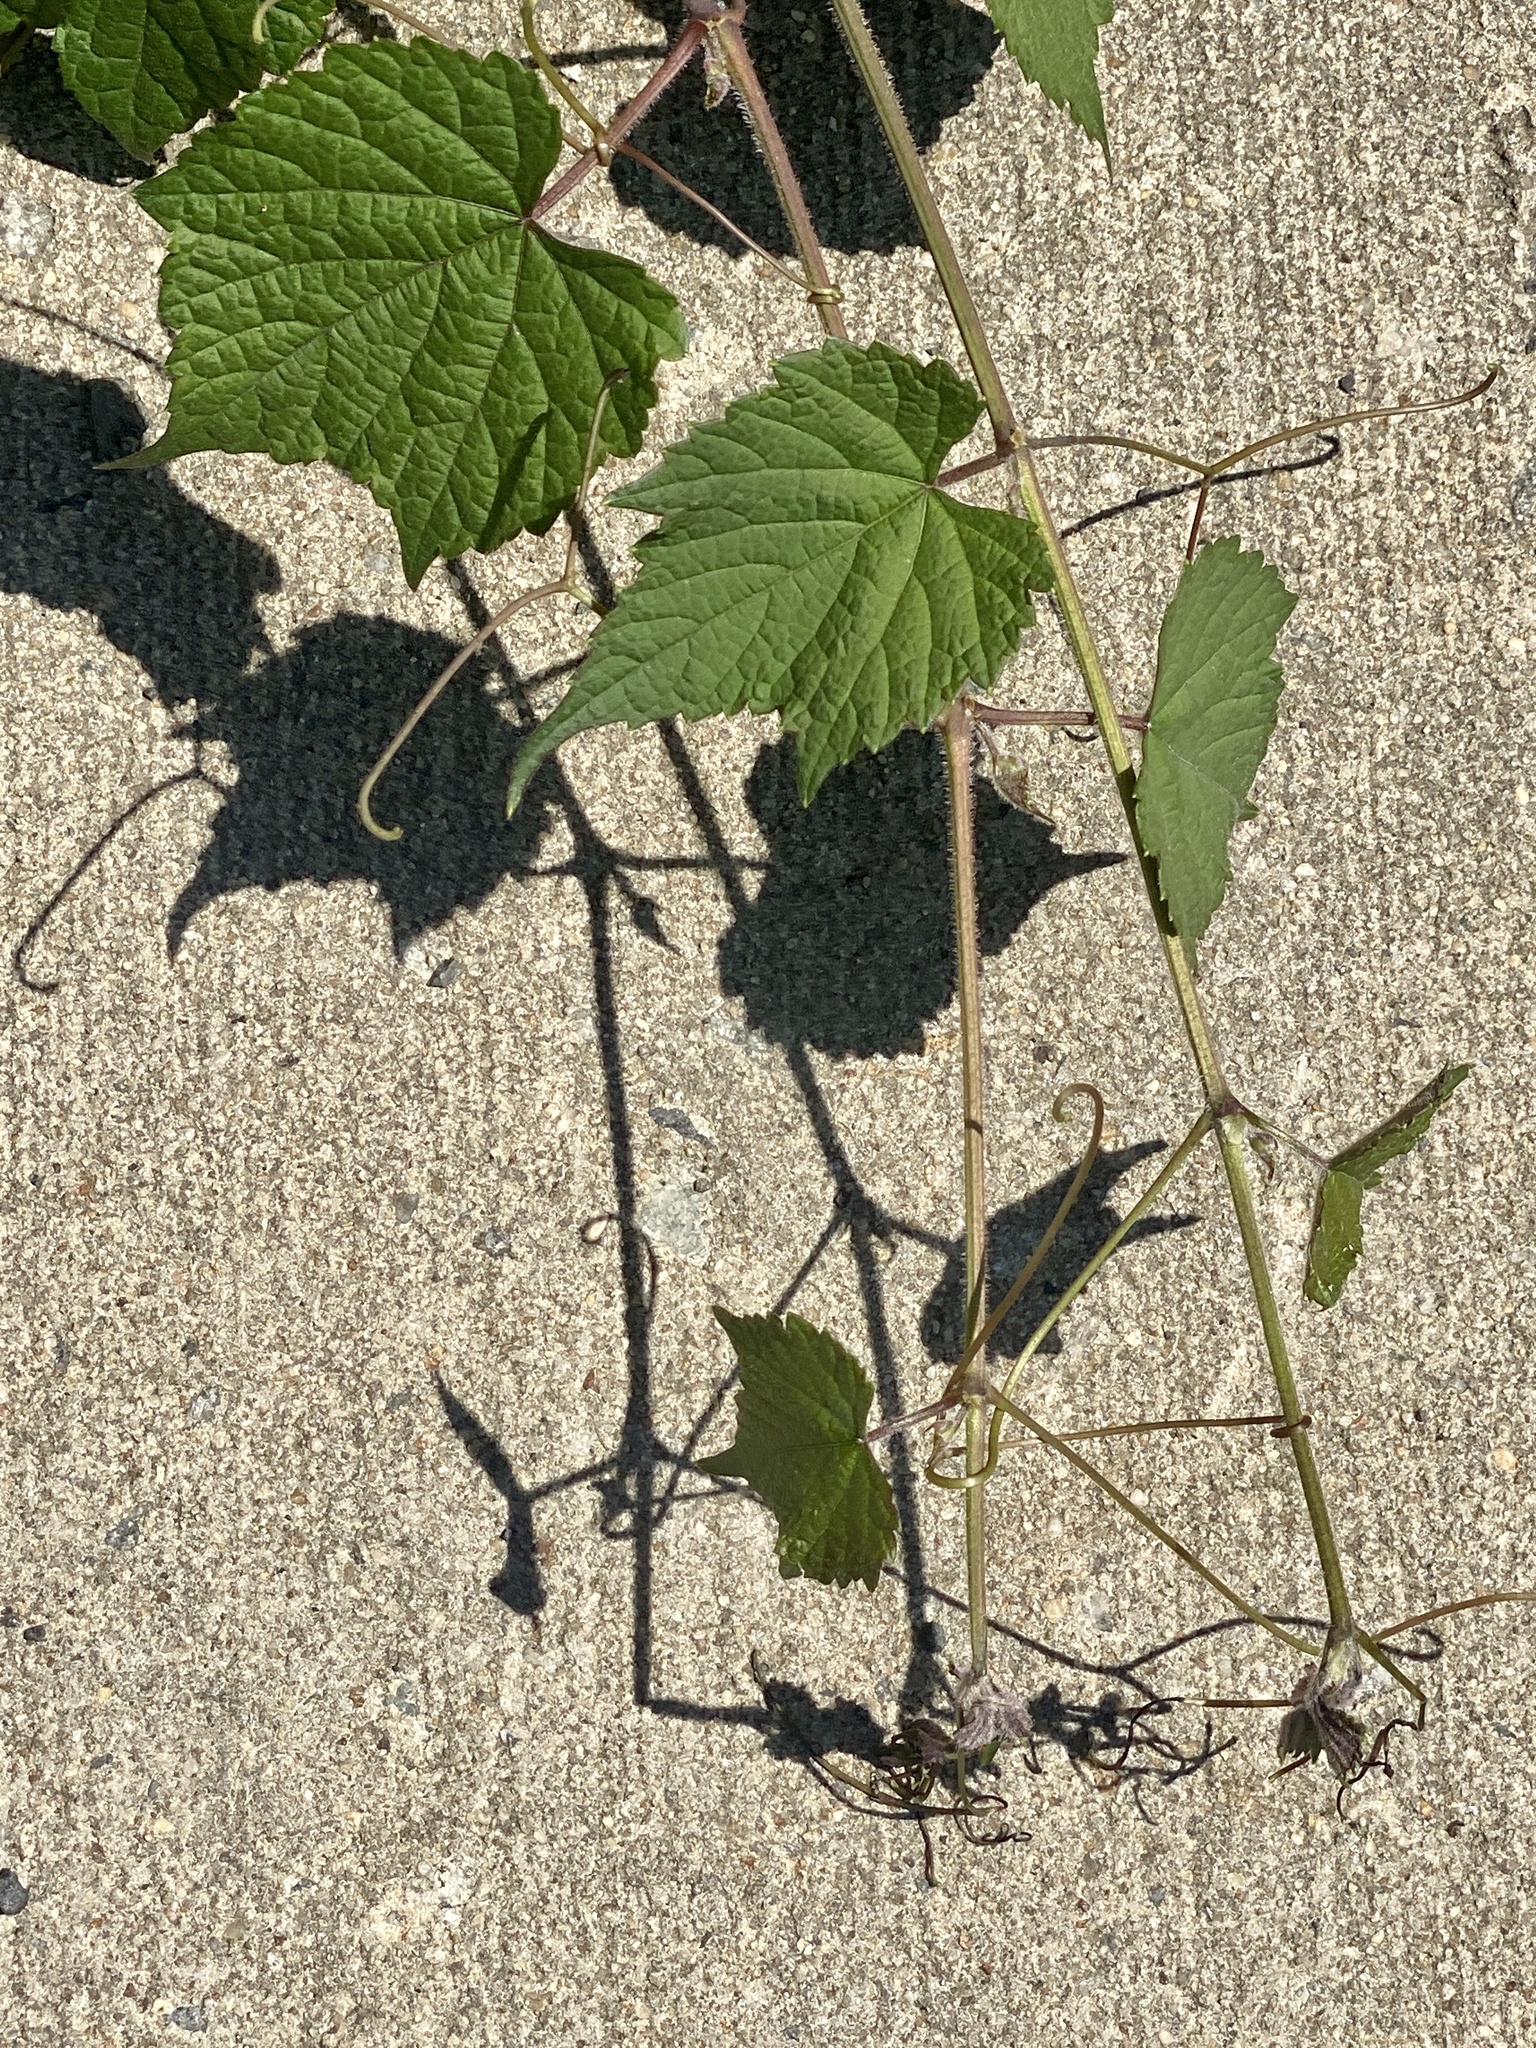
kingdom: Plantae
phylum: Tracheophyta
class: Magnoliopsida
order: Vitales
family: Vitaceae
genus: Ampelopsis
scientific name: Ampelopsis glandulosa
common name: Amur peppervine
